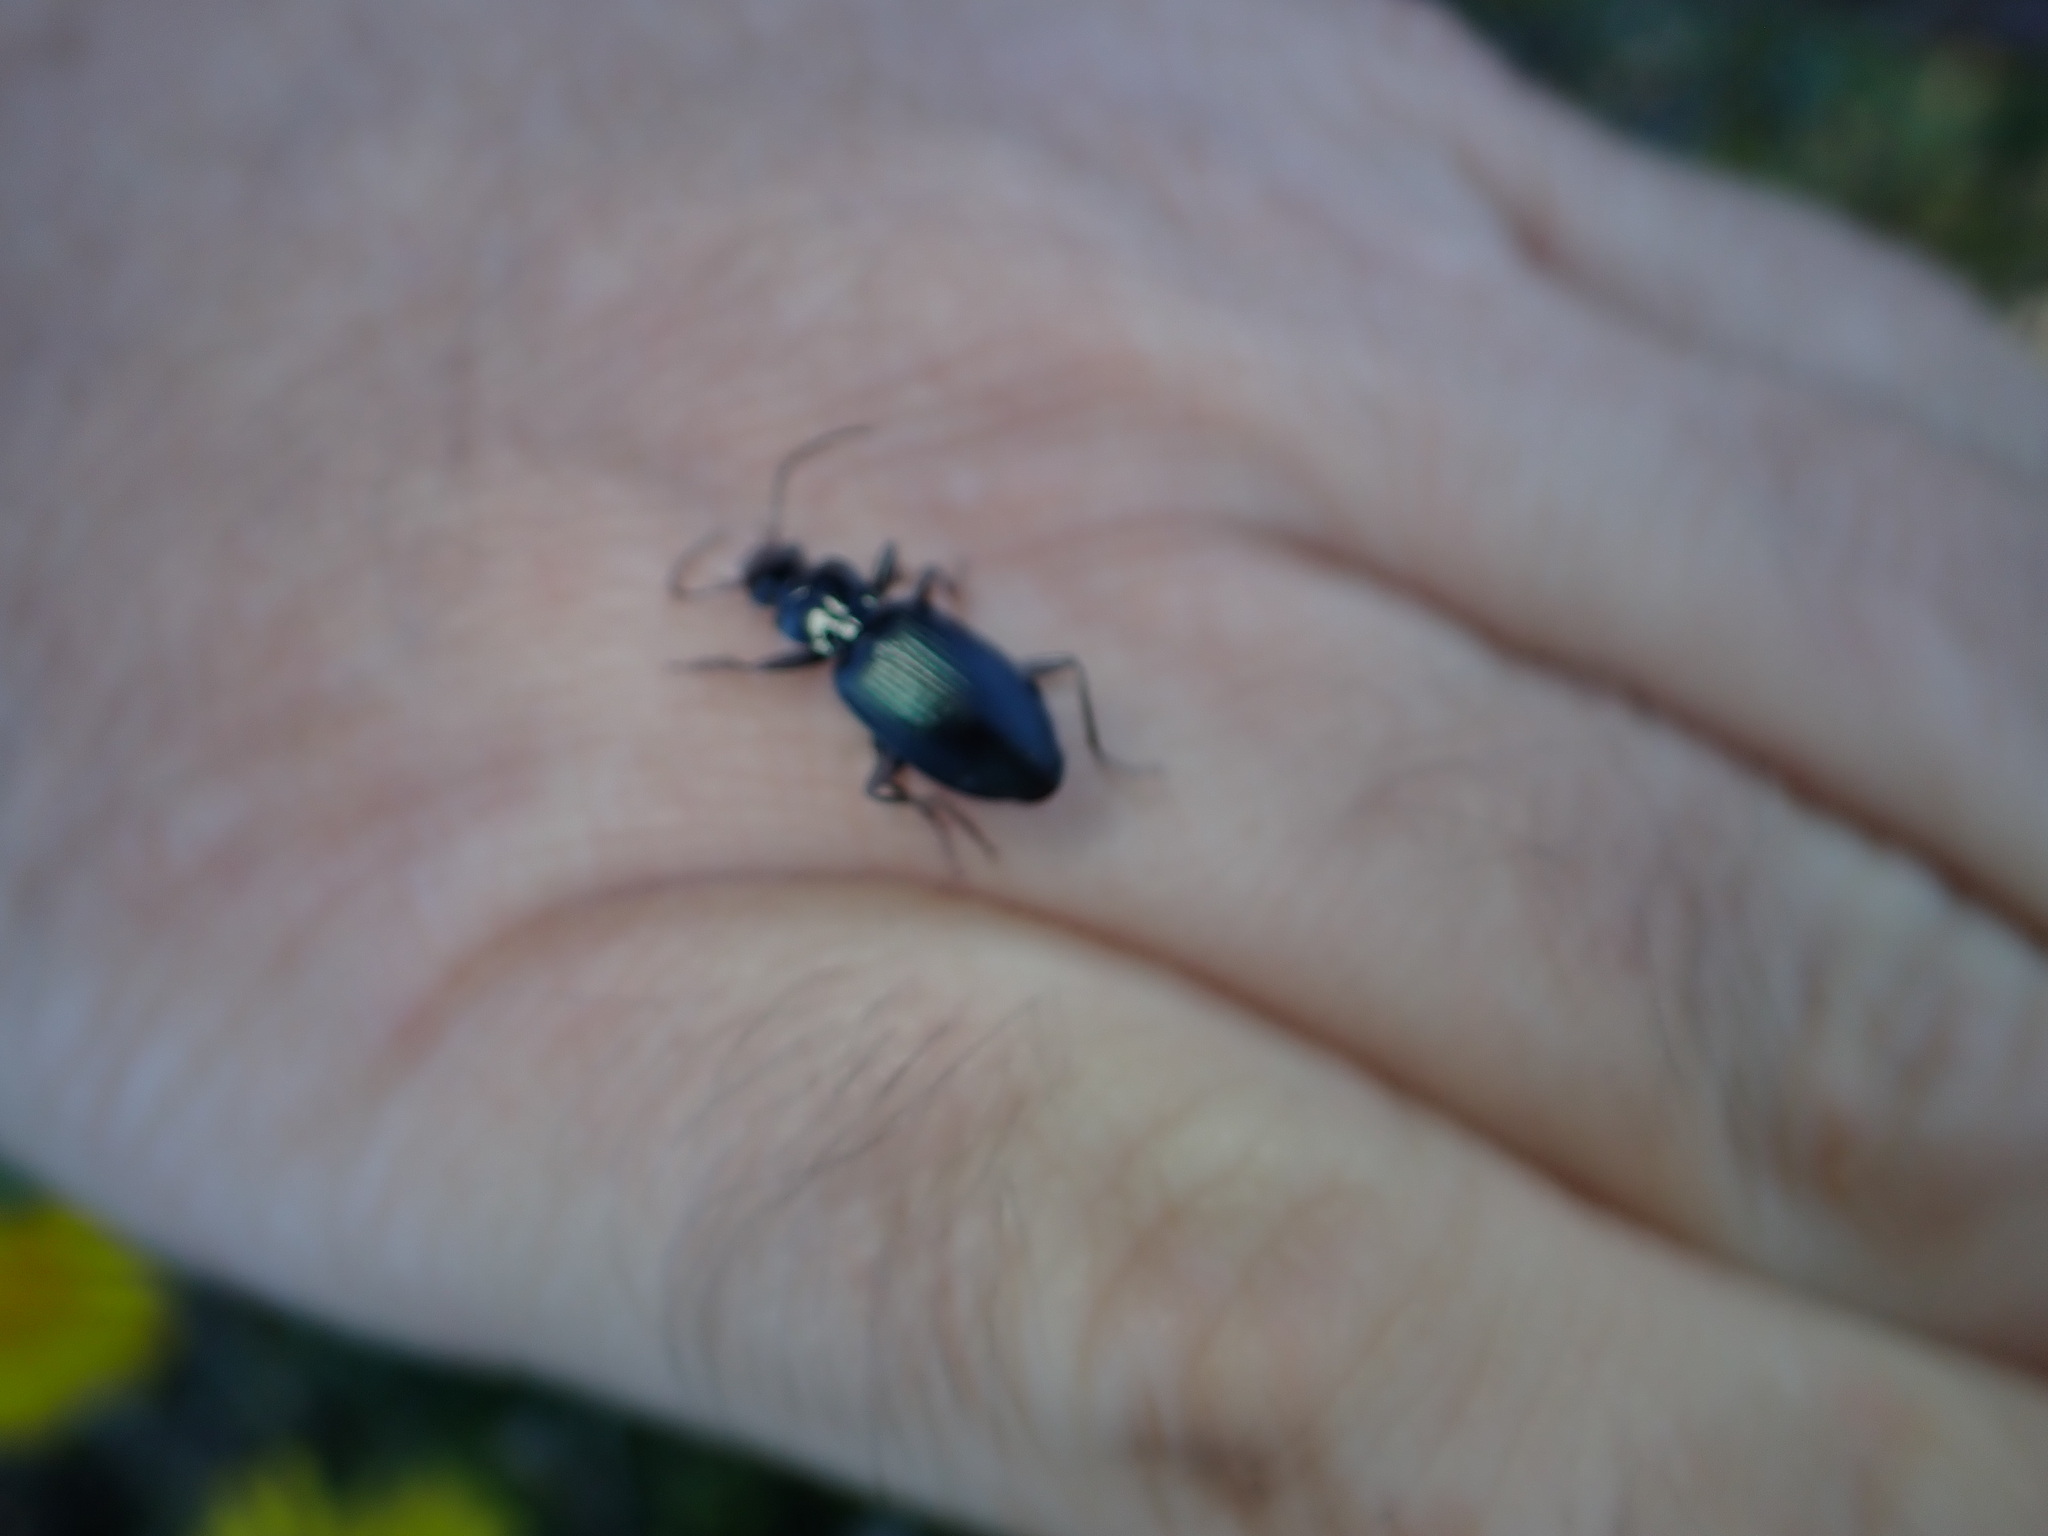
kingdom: Animalia
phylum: Arthropoda
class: Insecta
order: Coleoptera
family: Carabidae
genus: Laemostenus
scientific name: Laemostenus complanatus
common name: Cosmopolitan ground beetle
